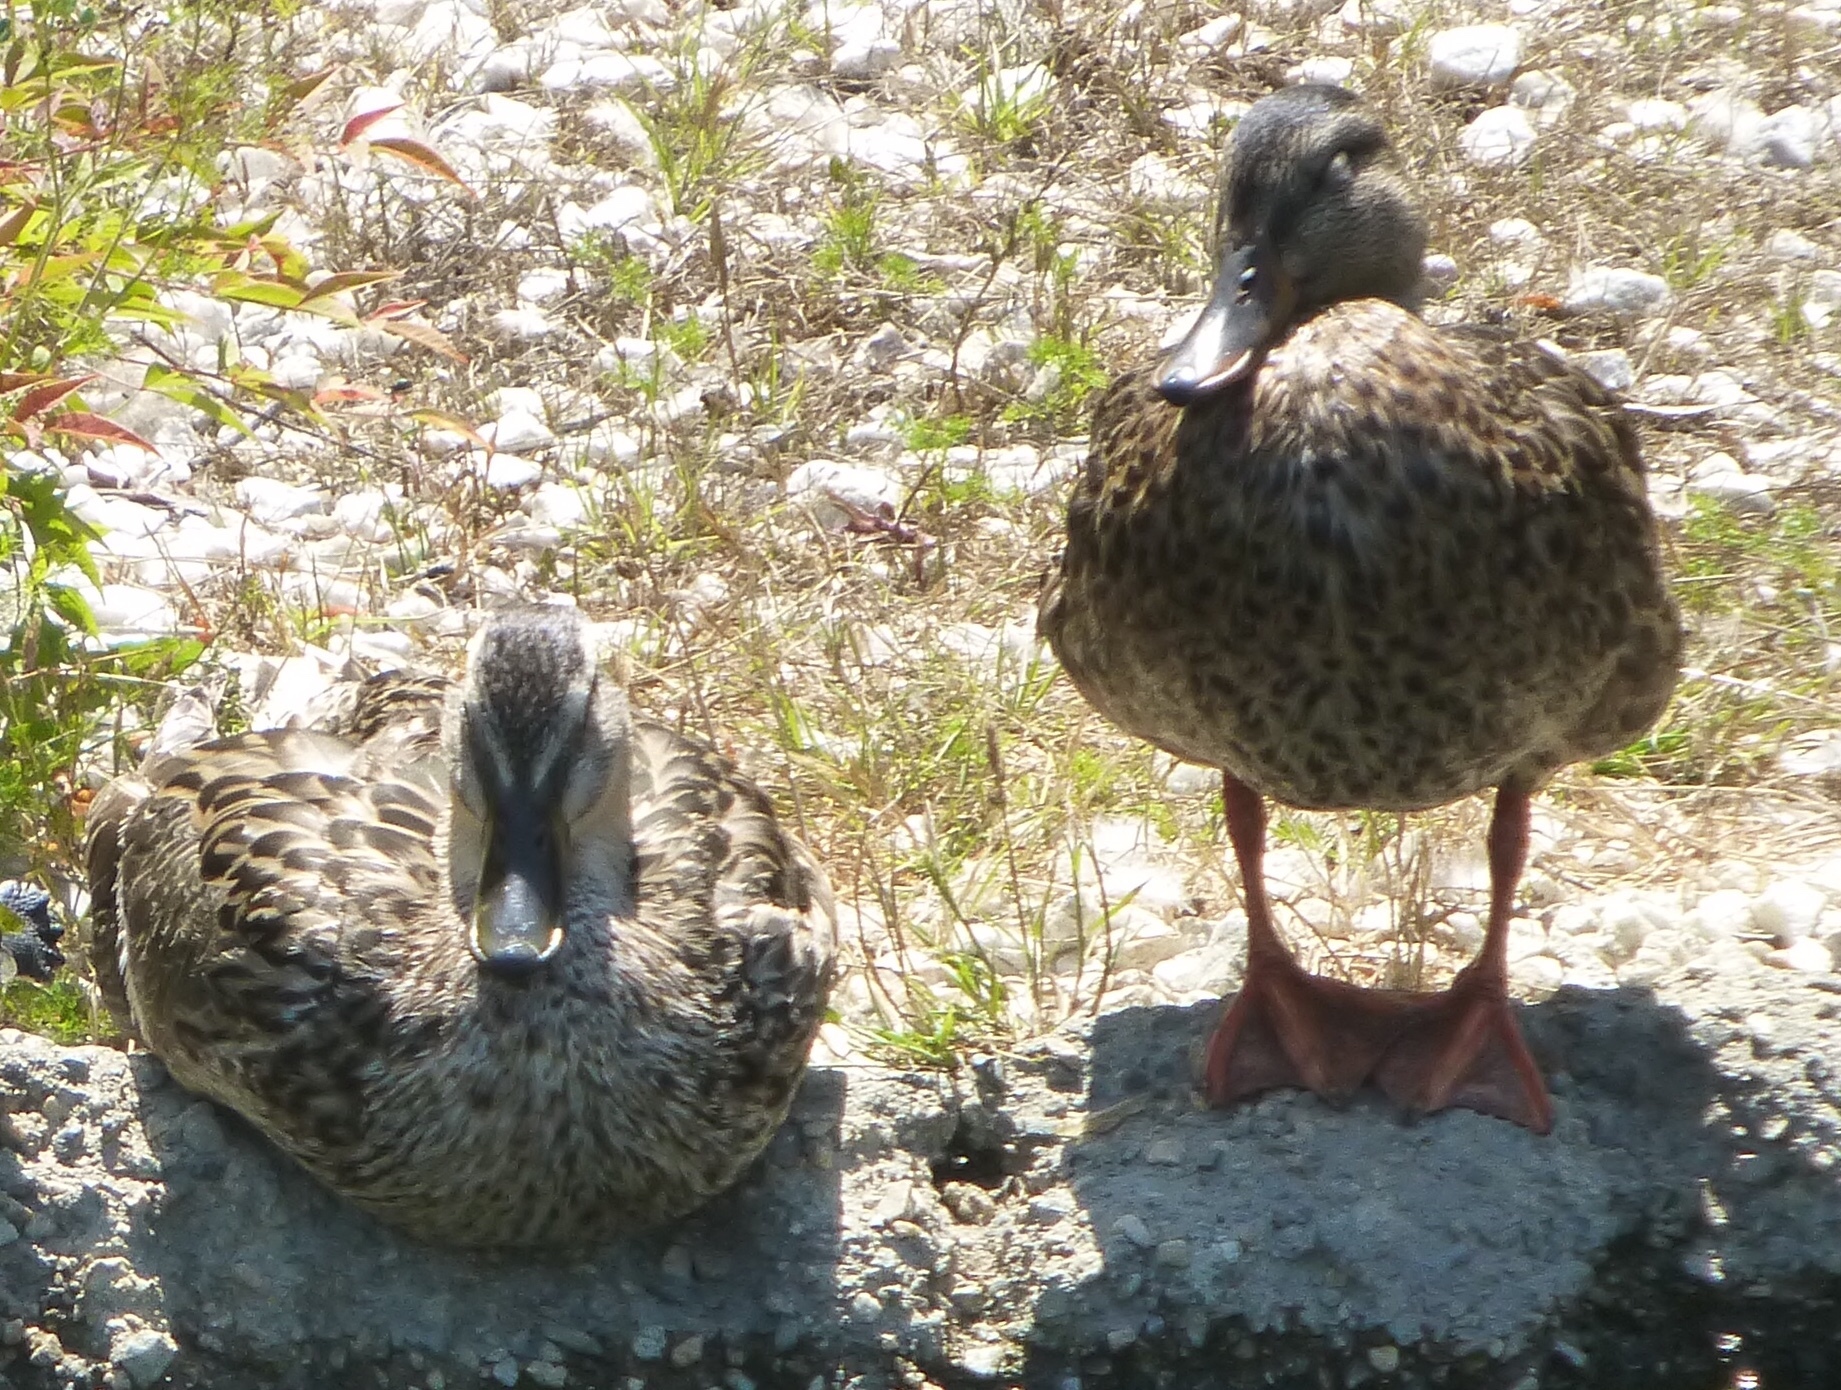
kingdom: Animalia
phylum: Chordata
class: Aves
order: Anseriformes
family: Anatidae
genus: Anas
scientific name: Anas platyrhynchos
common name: Mallard
